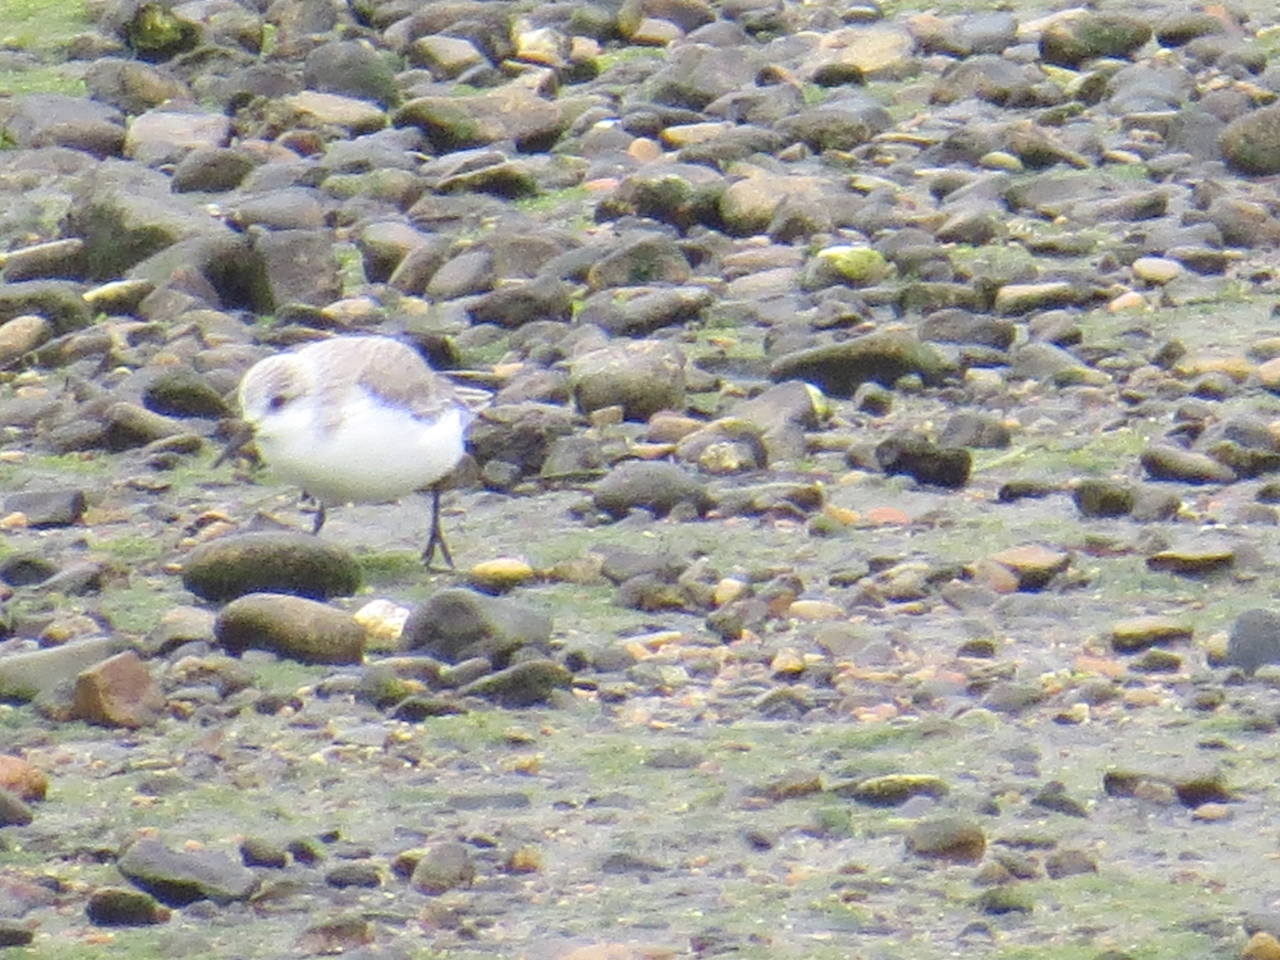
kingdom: Animalia
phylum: Chordata
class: Aves
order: Charadriiformes
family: Scolopacidae
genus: Calidris
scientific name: Calidris alba
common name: Sanderling
